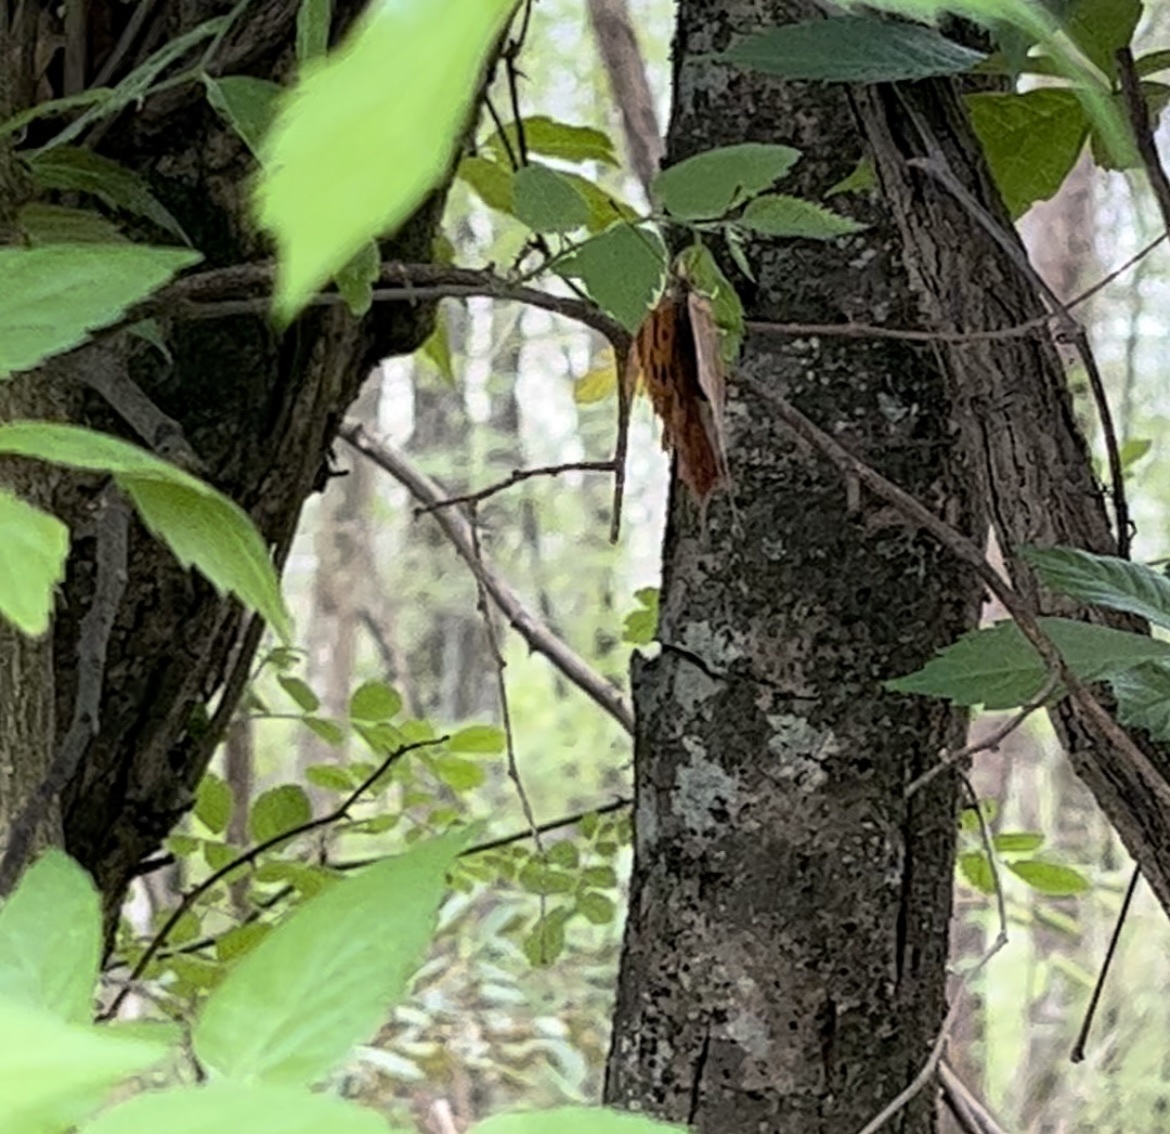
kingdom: Animalia
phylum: Arthropoda
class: Insecta
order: Lepidoptera
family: Nymphalidae
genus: Polygonia
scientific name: Polygonia interrogationis
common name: Question mark
